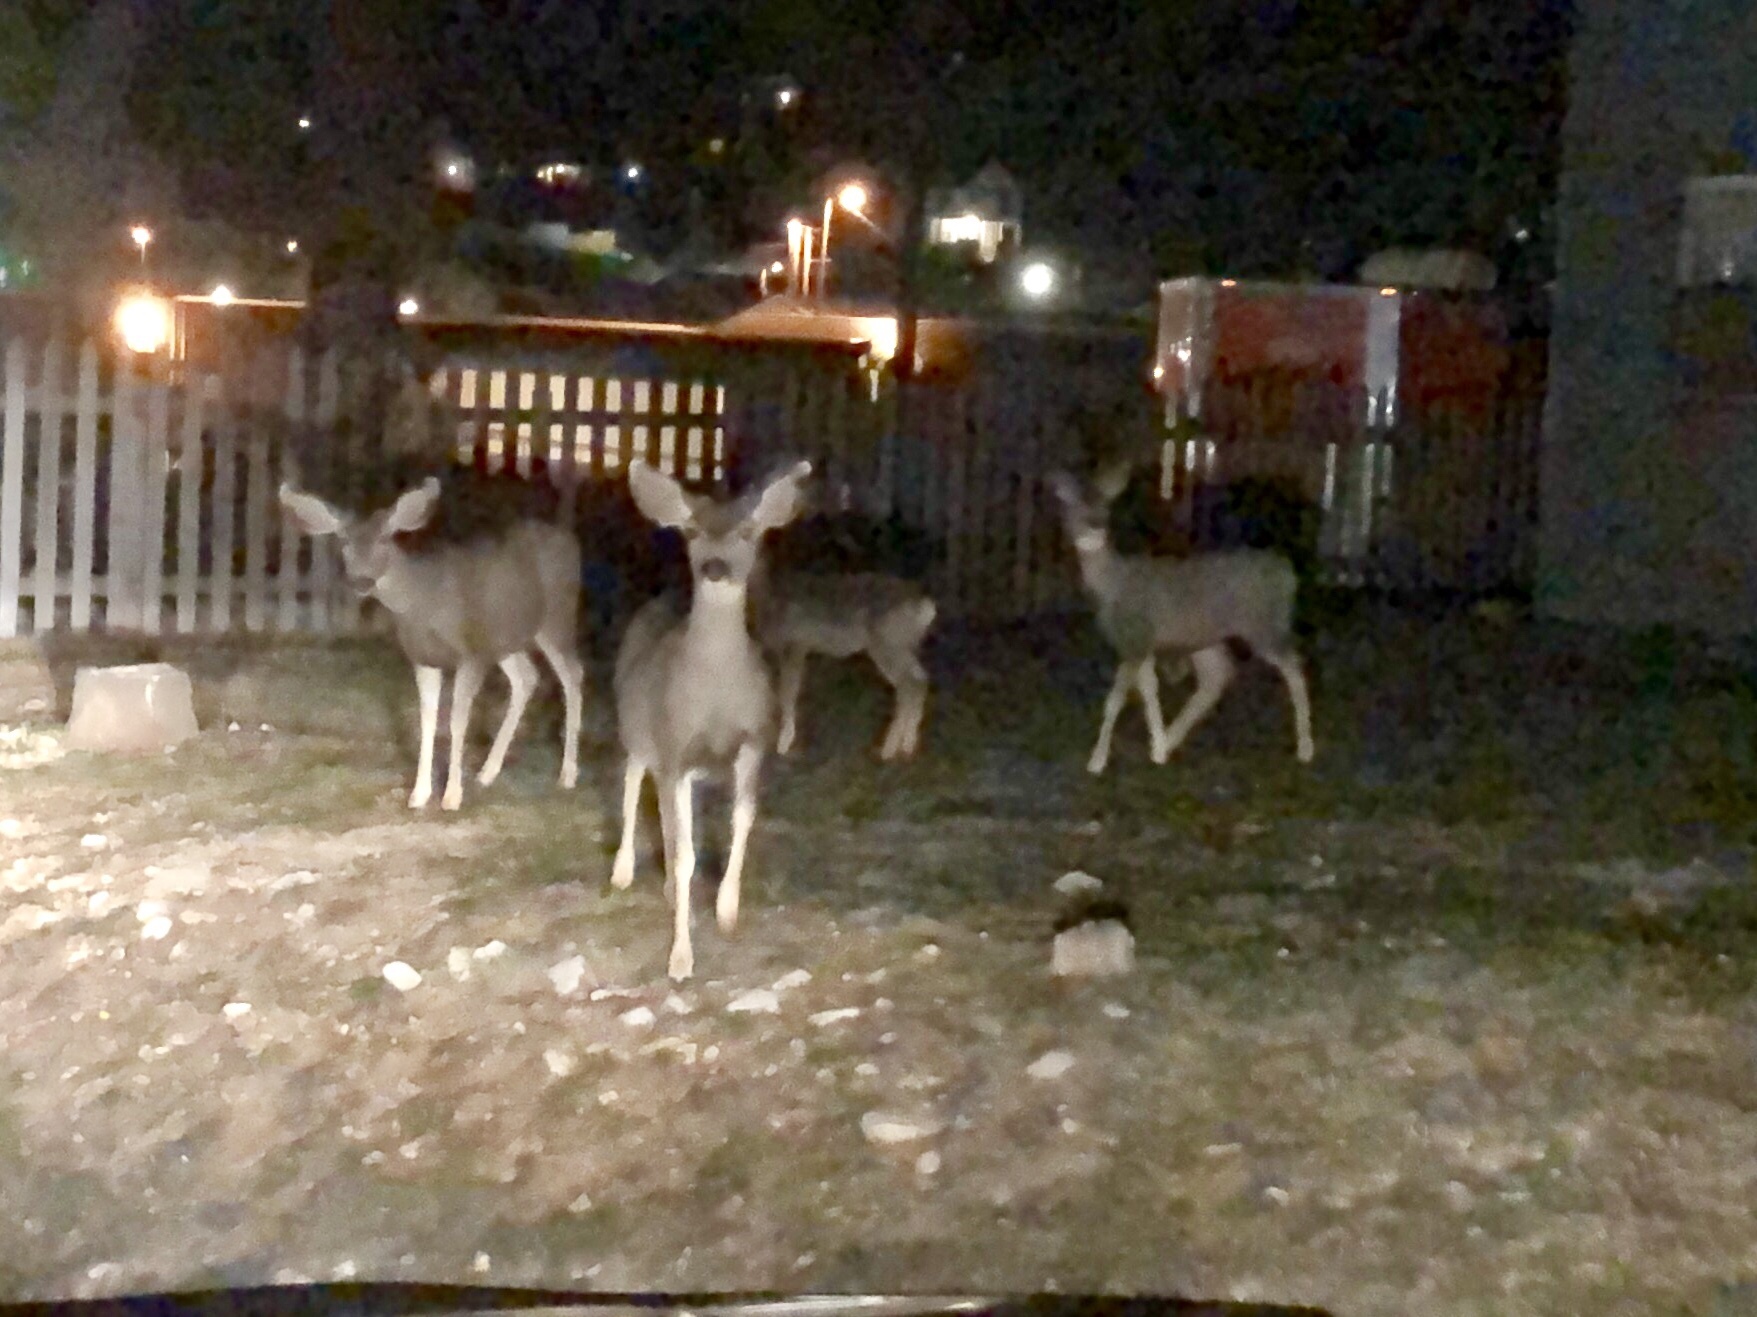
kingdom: Animalia
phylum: Chordata
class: Mammalia
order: Artiodactyla
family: Cervidae
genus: Odocoileus
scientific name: Odocoileus hemionus
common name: Mule deer
